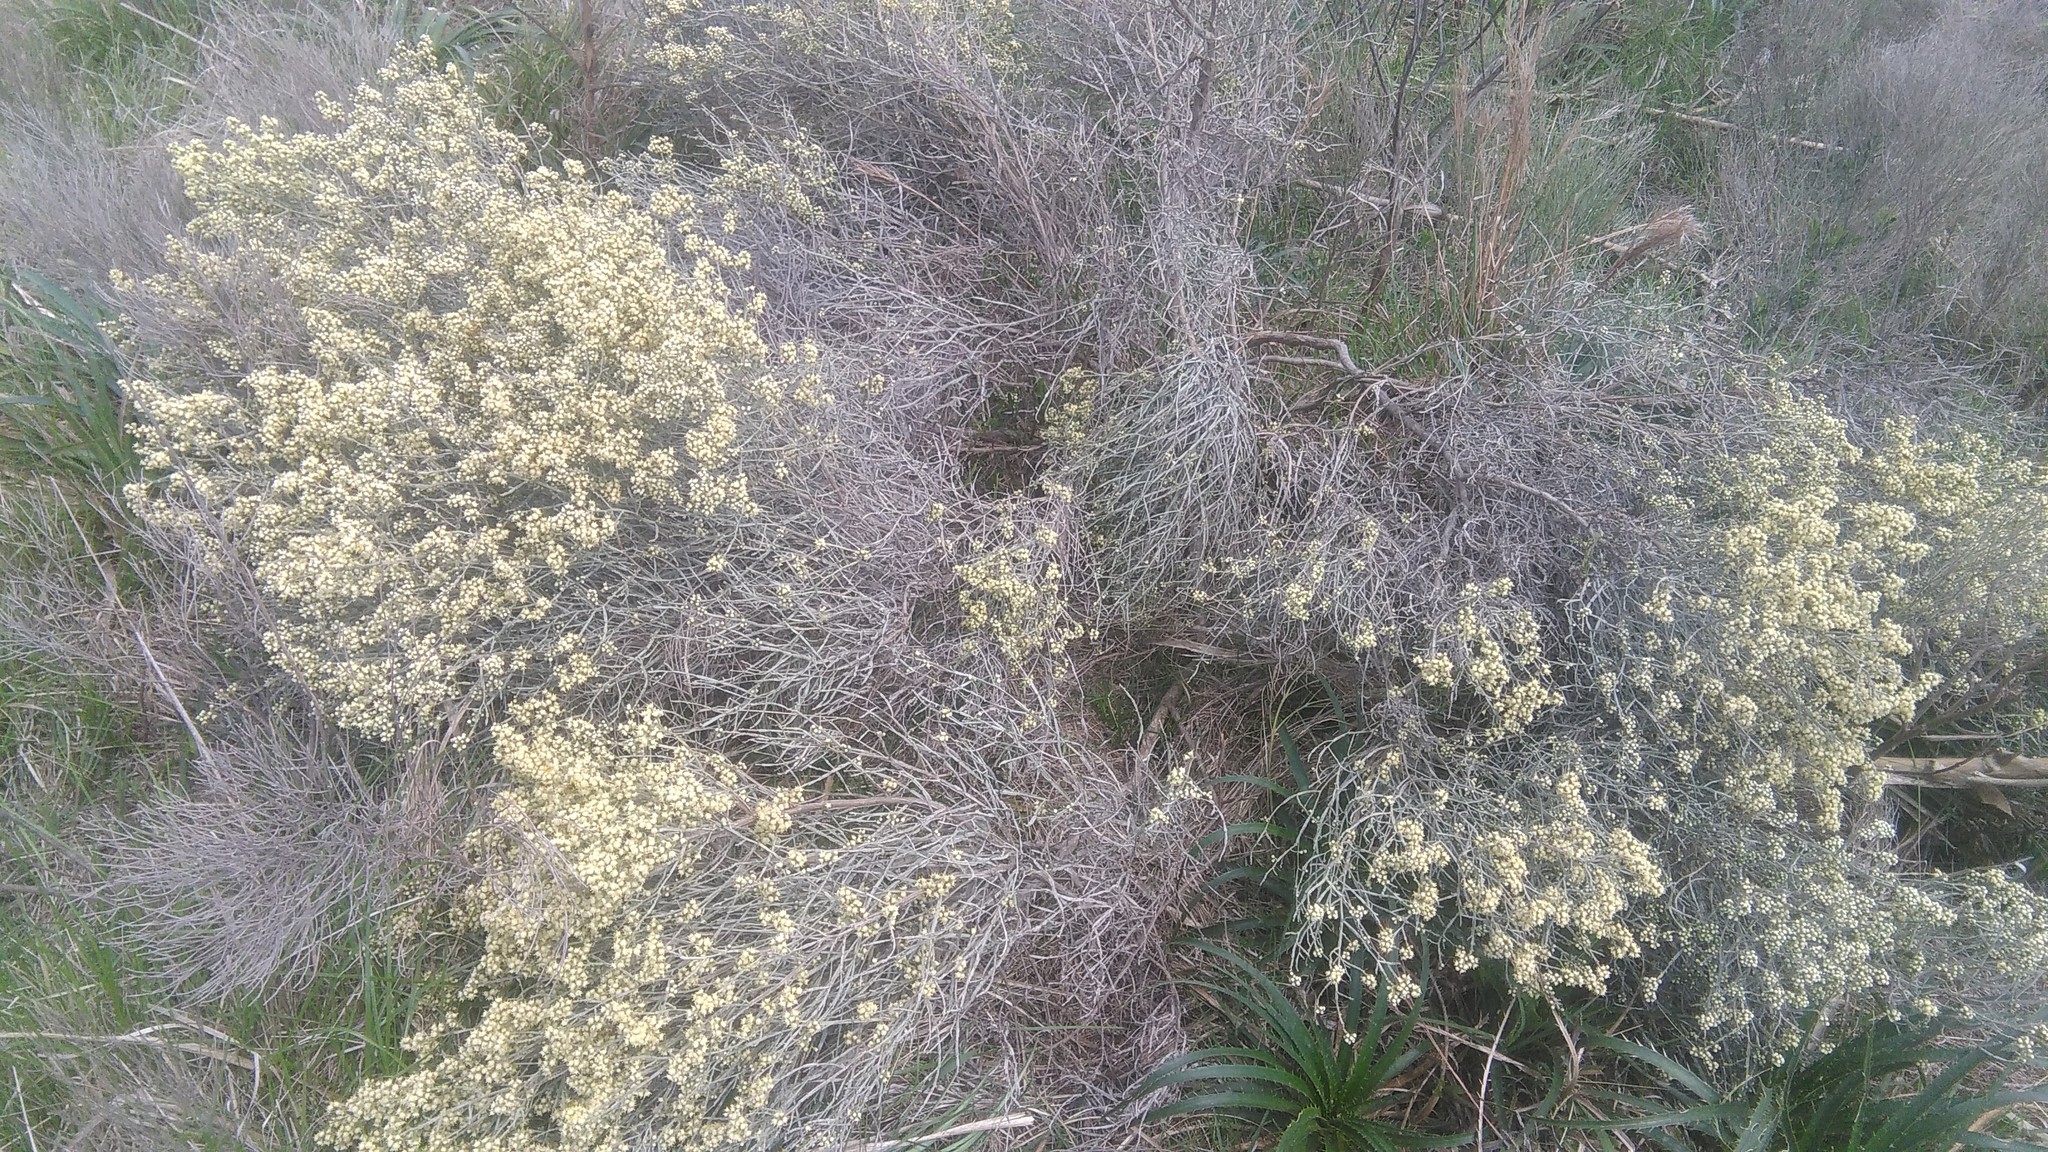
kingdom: Plantae
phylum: Tracheophyta
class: Magnoliopsida
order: Asterales
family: Asteraceae
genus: Baccharis
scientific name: Baccharis articulata
